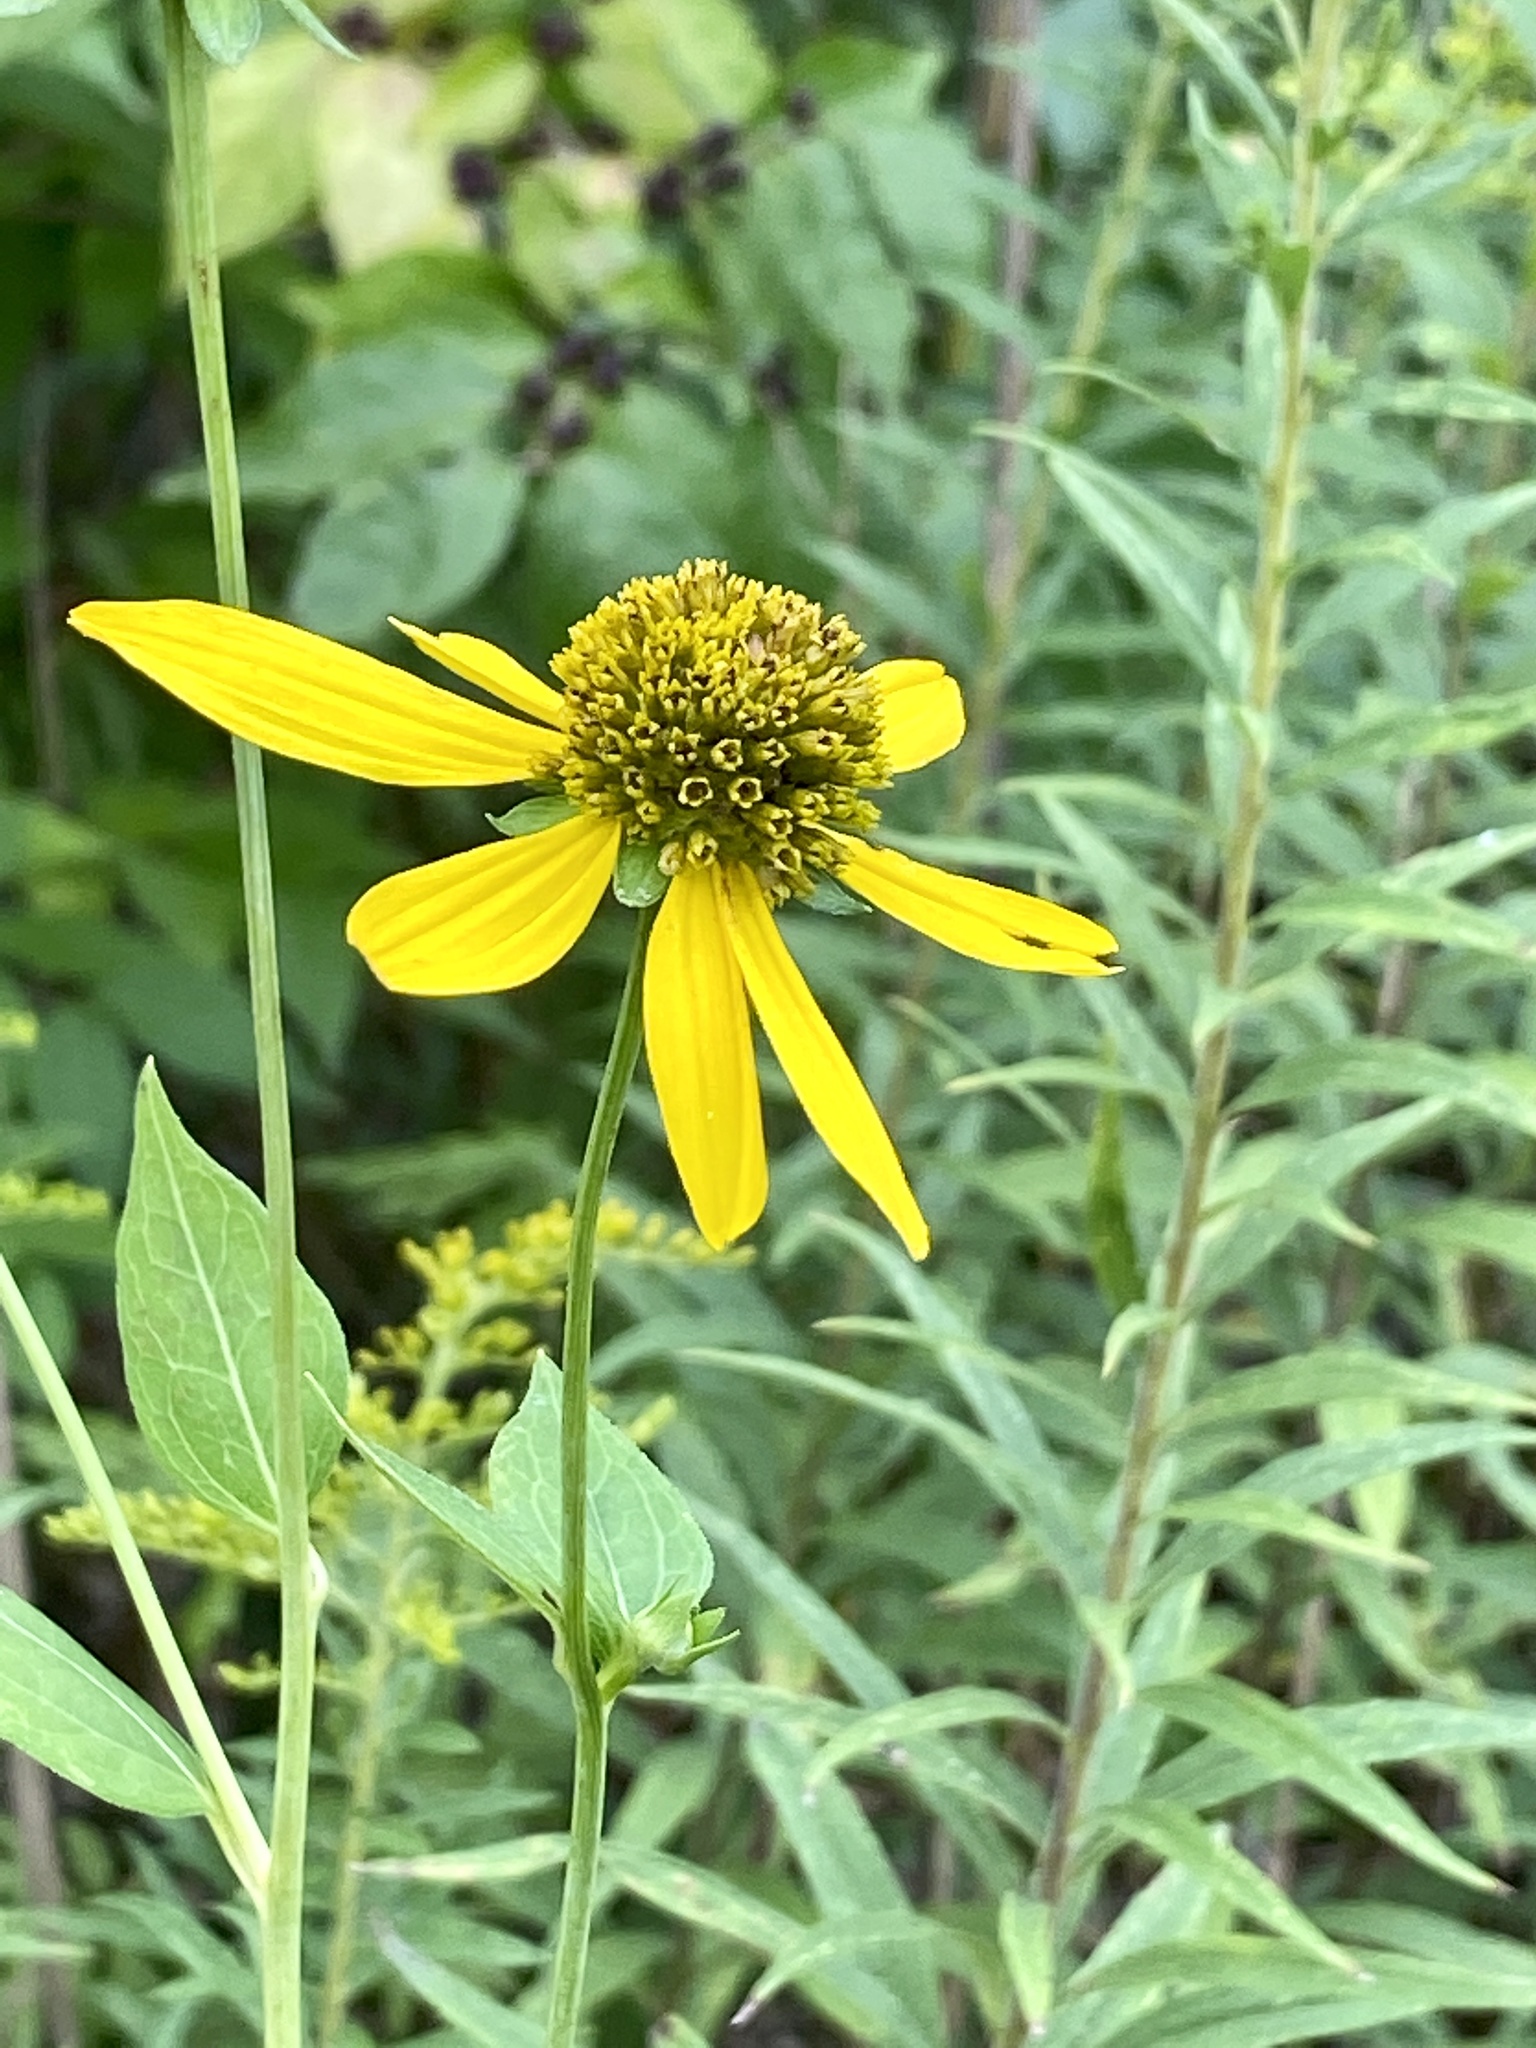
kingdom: Plantae
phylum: Tracheophyta
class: Magnoliopsida
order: Asterales
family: Asteraceae
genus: Rudbeckia
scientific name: Rudbeckia laciniata
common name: Coneflower
